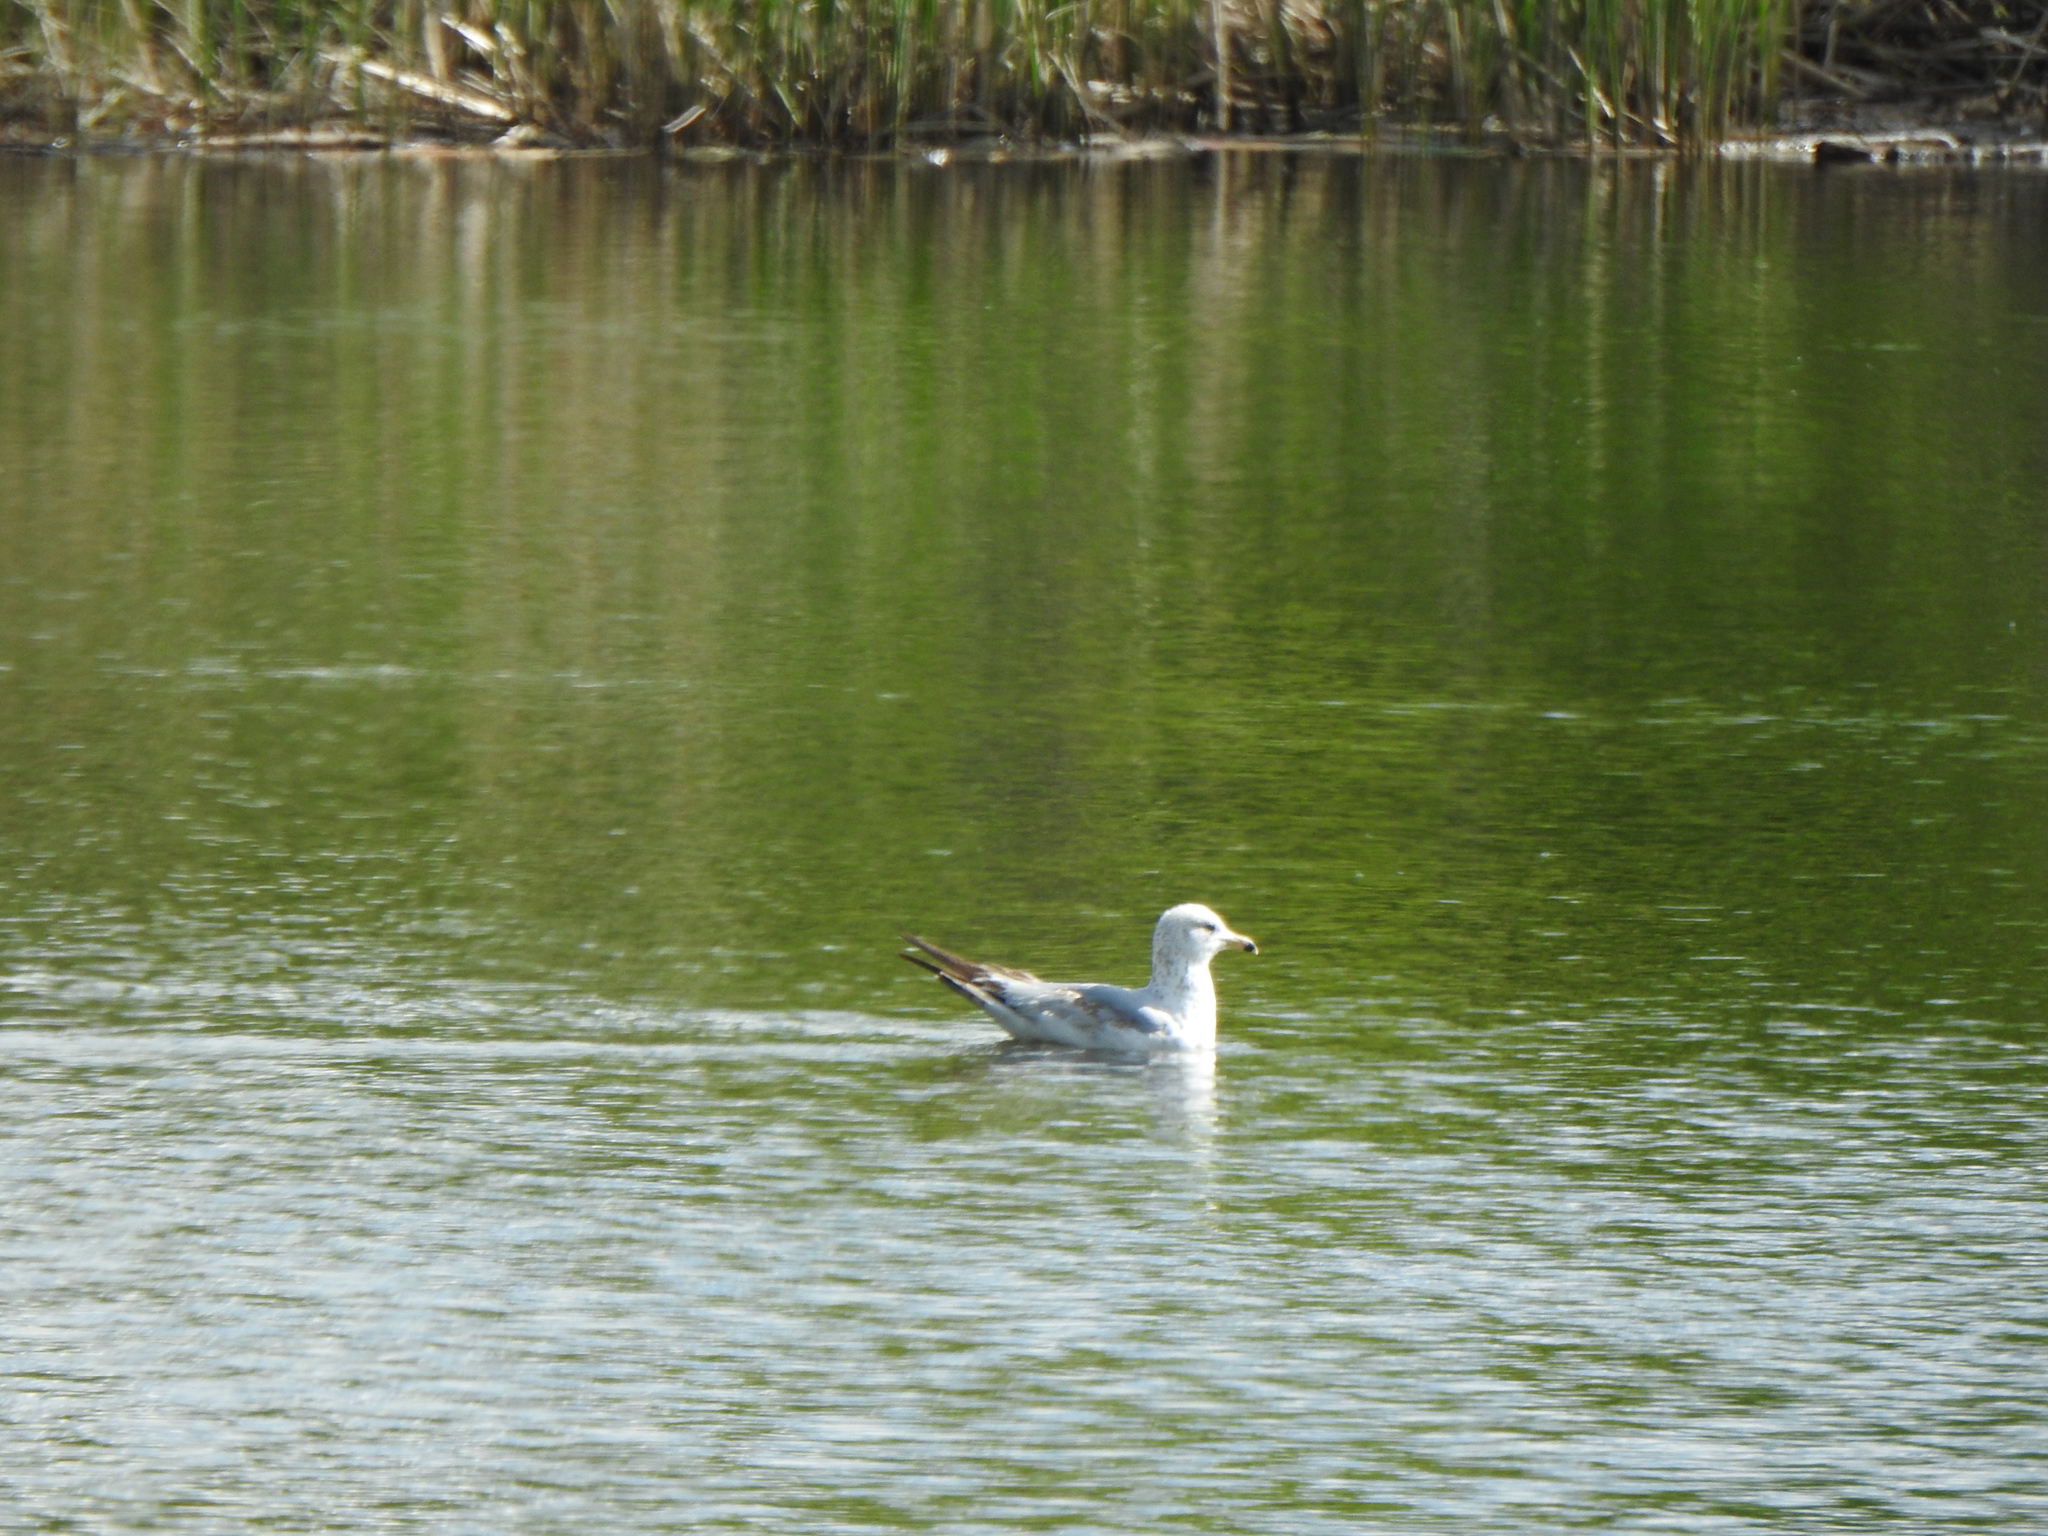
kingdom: Animalia
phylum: Chordata
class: Aves
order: Charadriiformes
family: Laridae
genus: Larus
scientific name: Larus delawarensis
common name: Ring-billed gull
